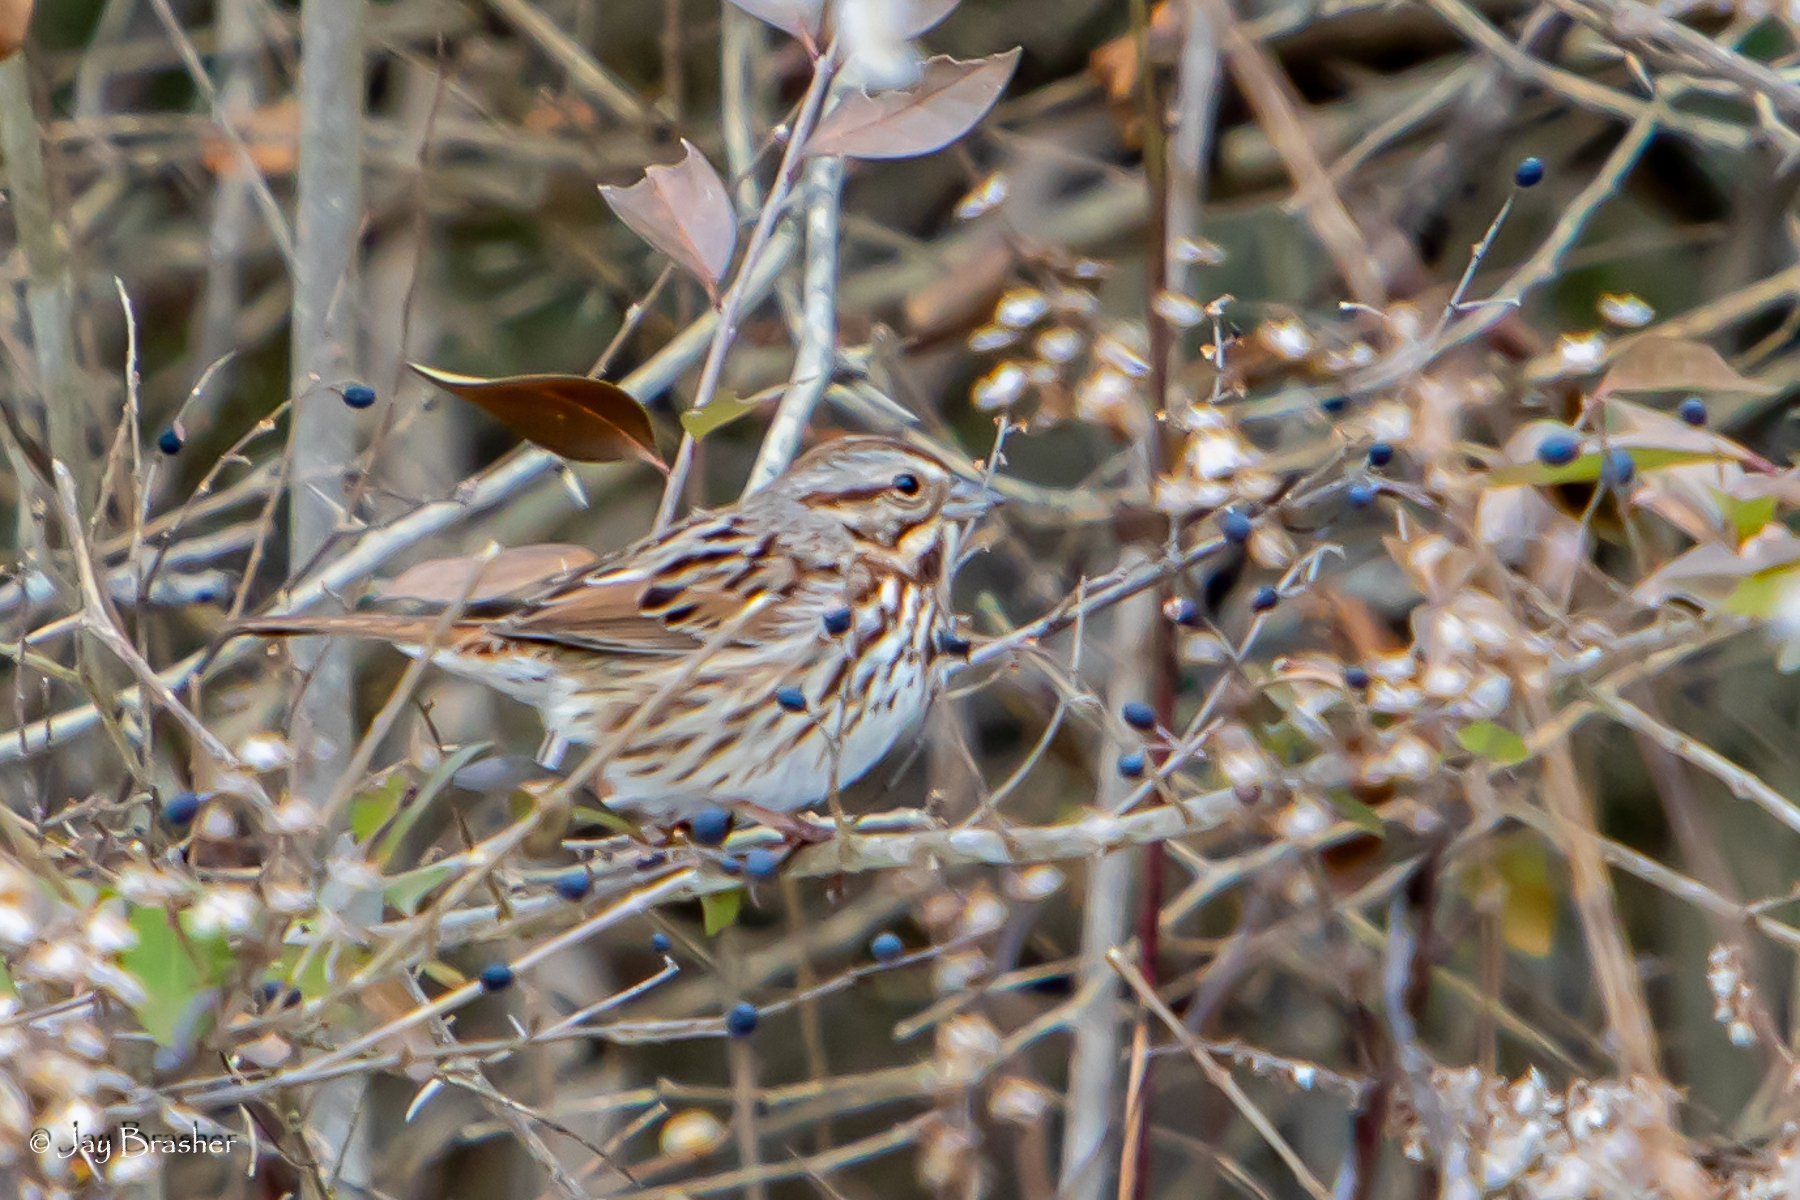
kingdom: Animalia
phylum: Chordata
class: Aves
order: Passeriformes
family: Passerellidae
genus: Melospiza
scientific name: Melospiza melodia
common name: Song sparrow
